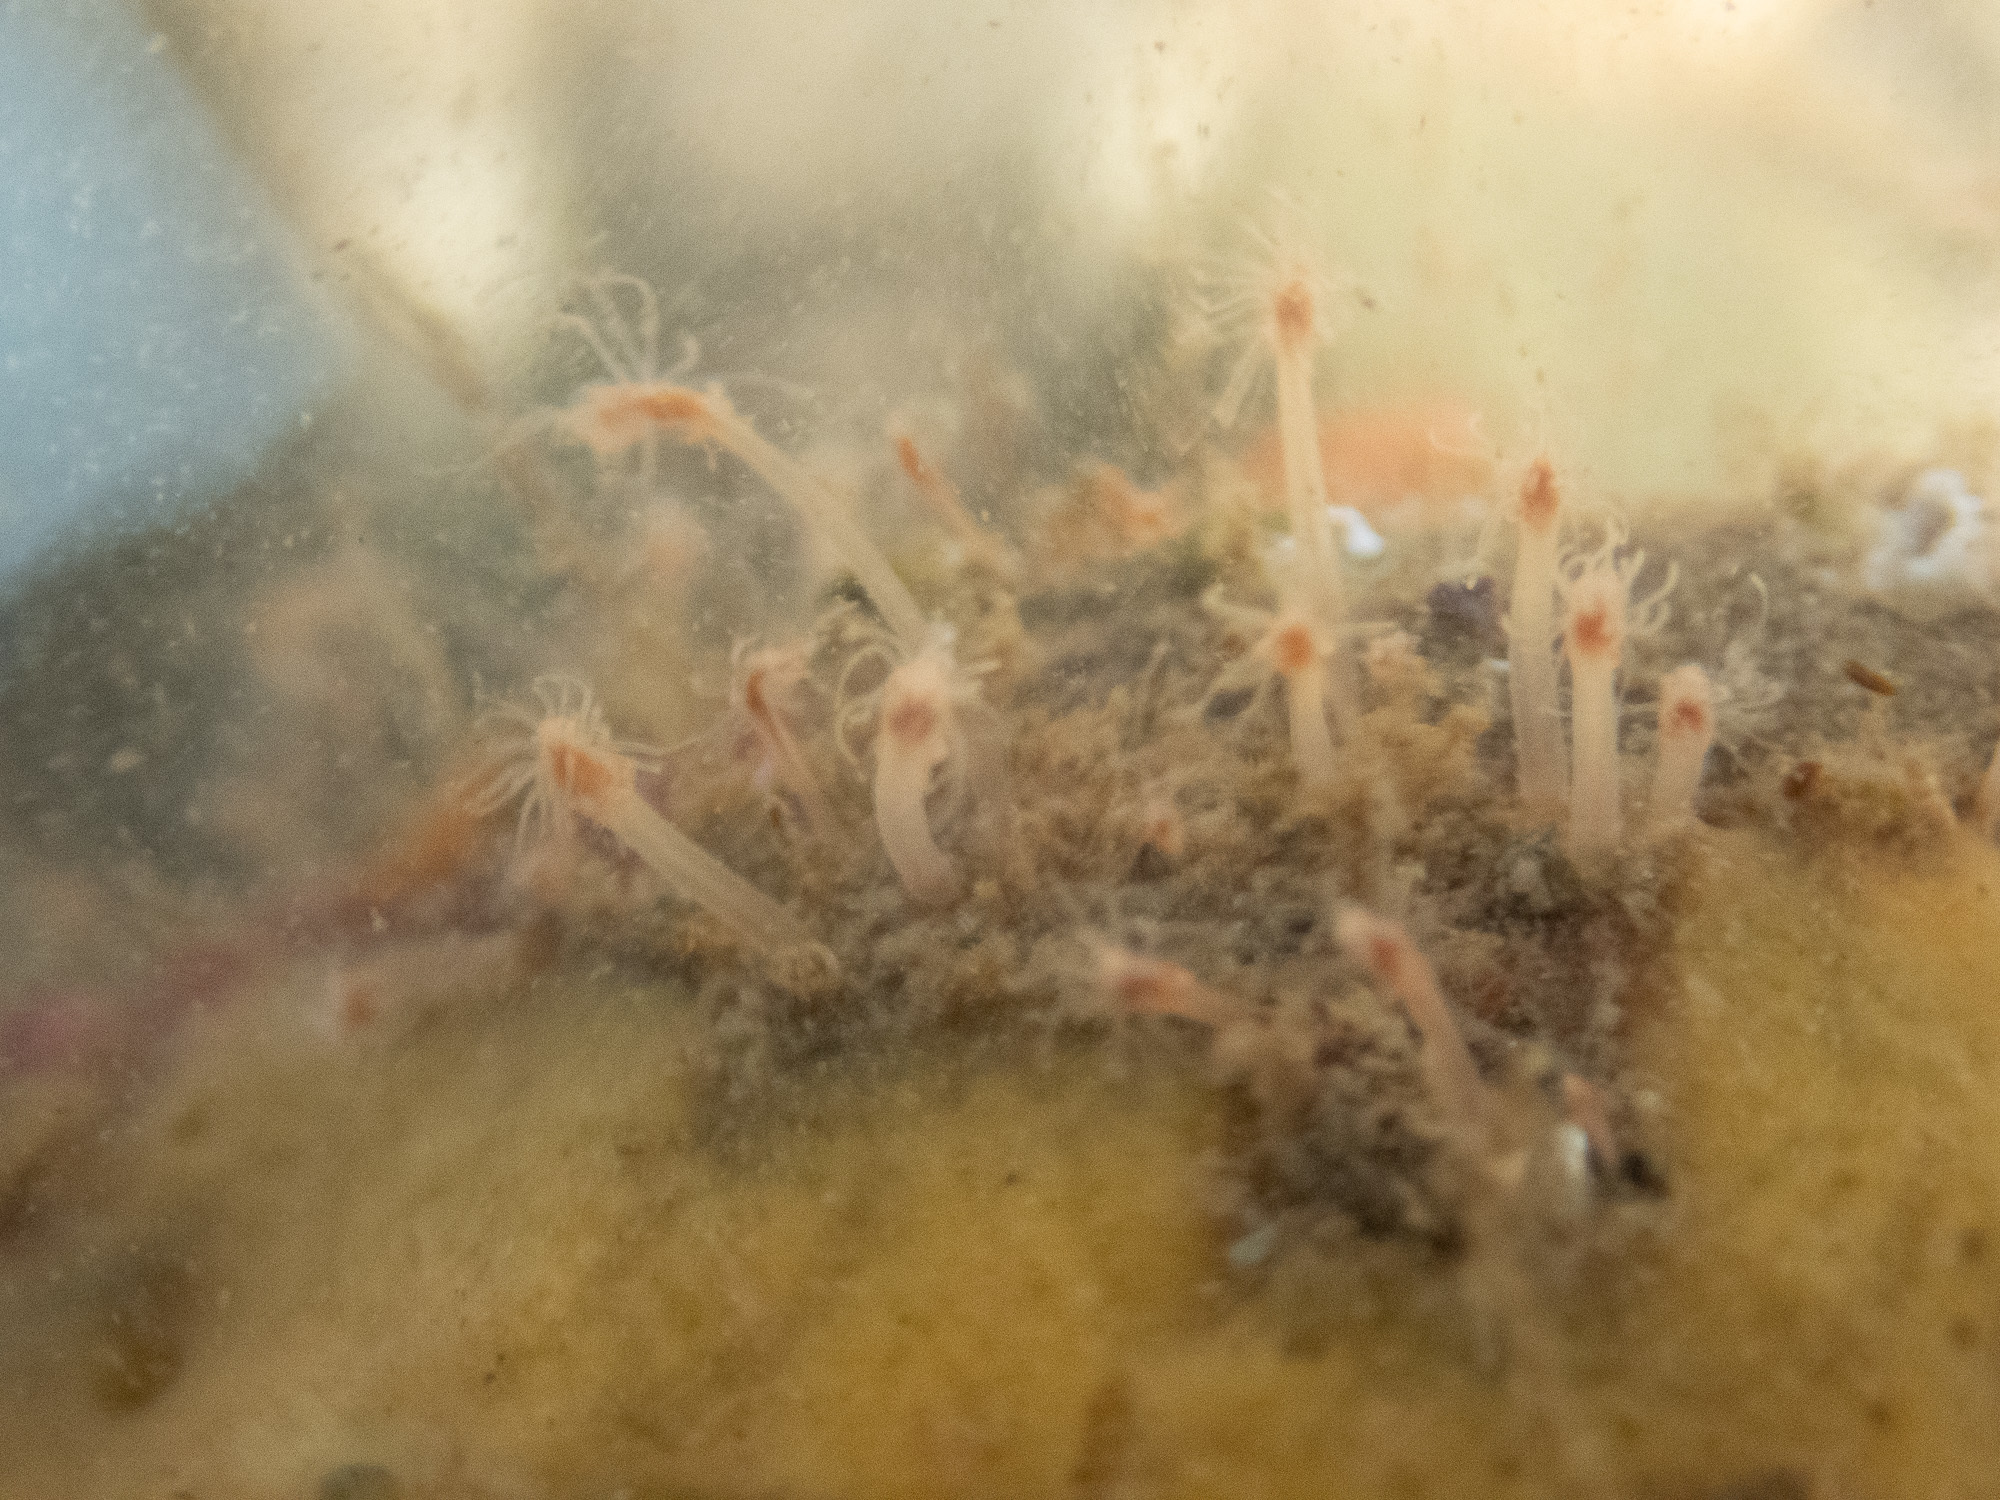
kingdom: Animalia
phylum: Cnidaria
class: Hydrozoa
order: Anthoathecata
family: Hydractiniidae
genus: Clava
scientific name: Clava multicornis
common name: Club-headed hydroid
